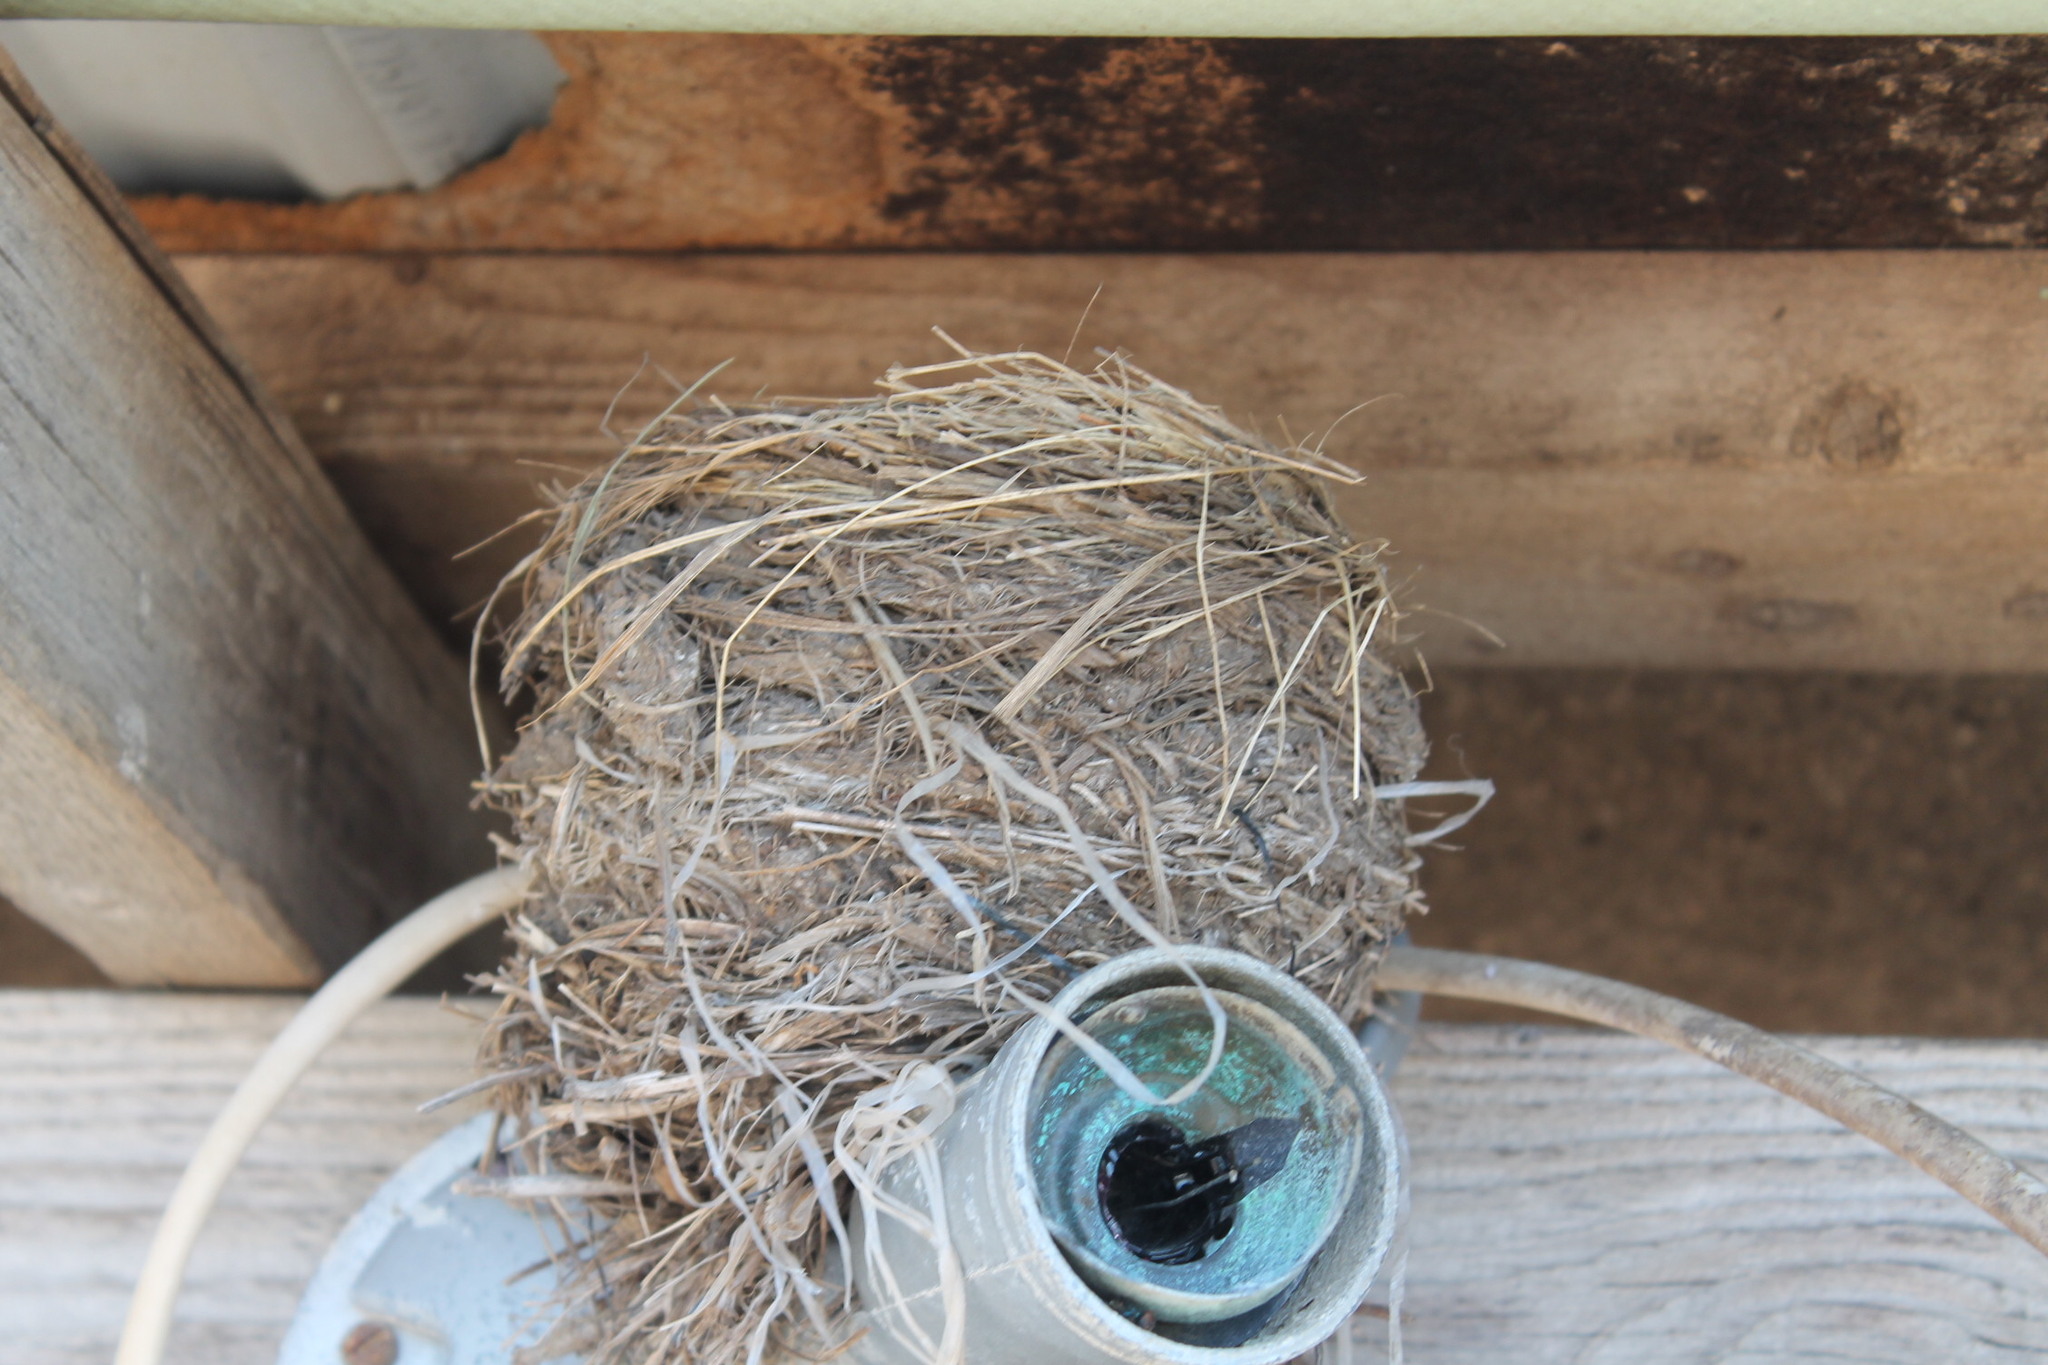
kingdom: Animalia
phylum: Chordata
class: Aves
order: Passeriformes
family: Turdidae
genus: Turdus
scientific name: Turdus migratorius
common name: American robin
